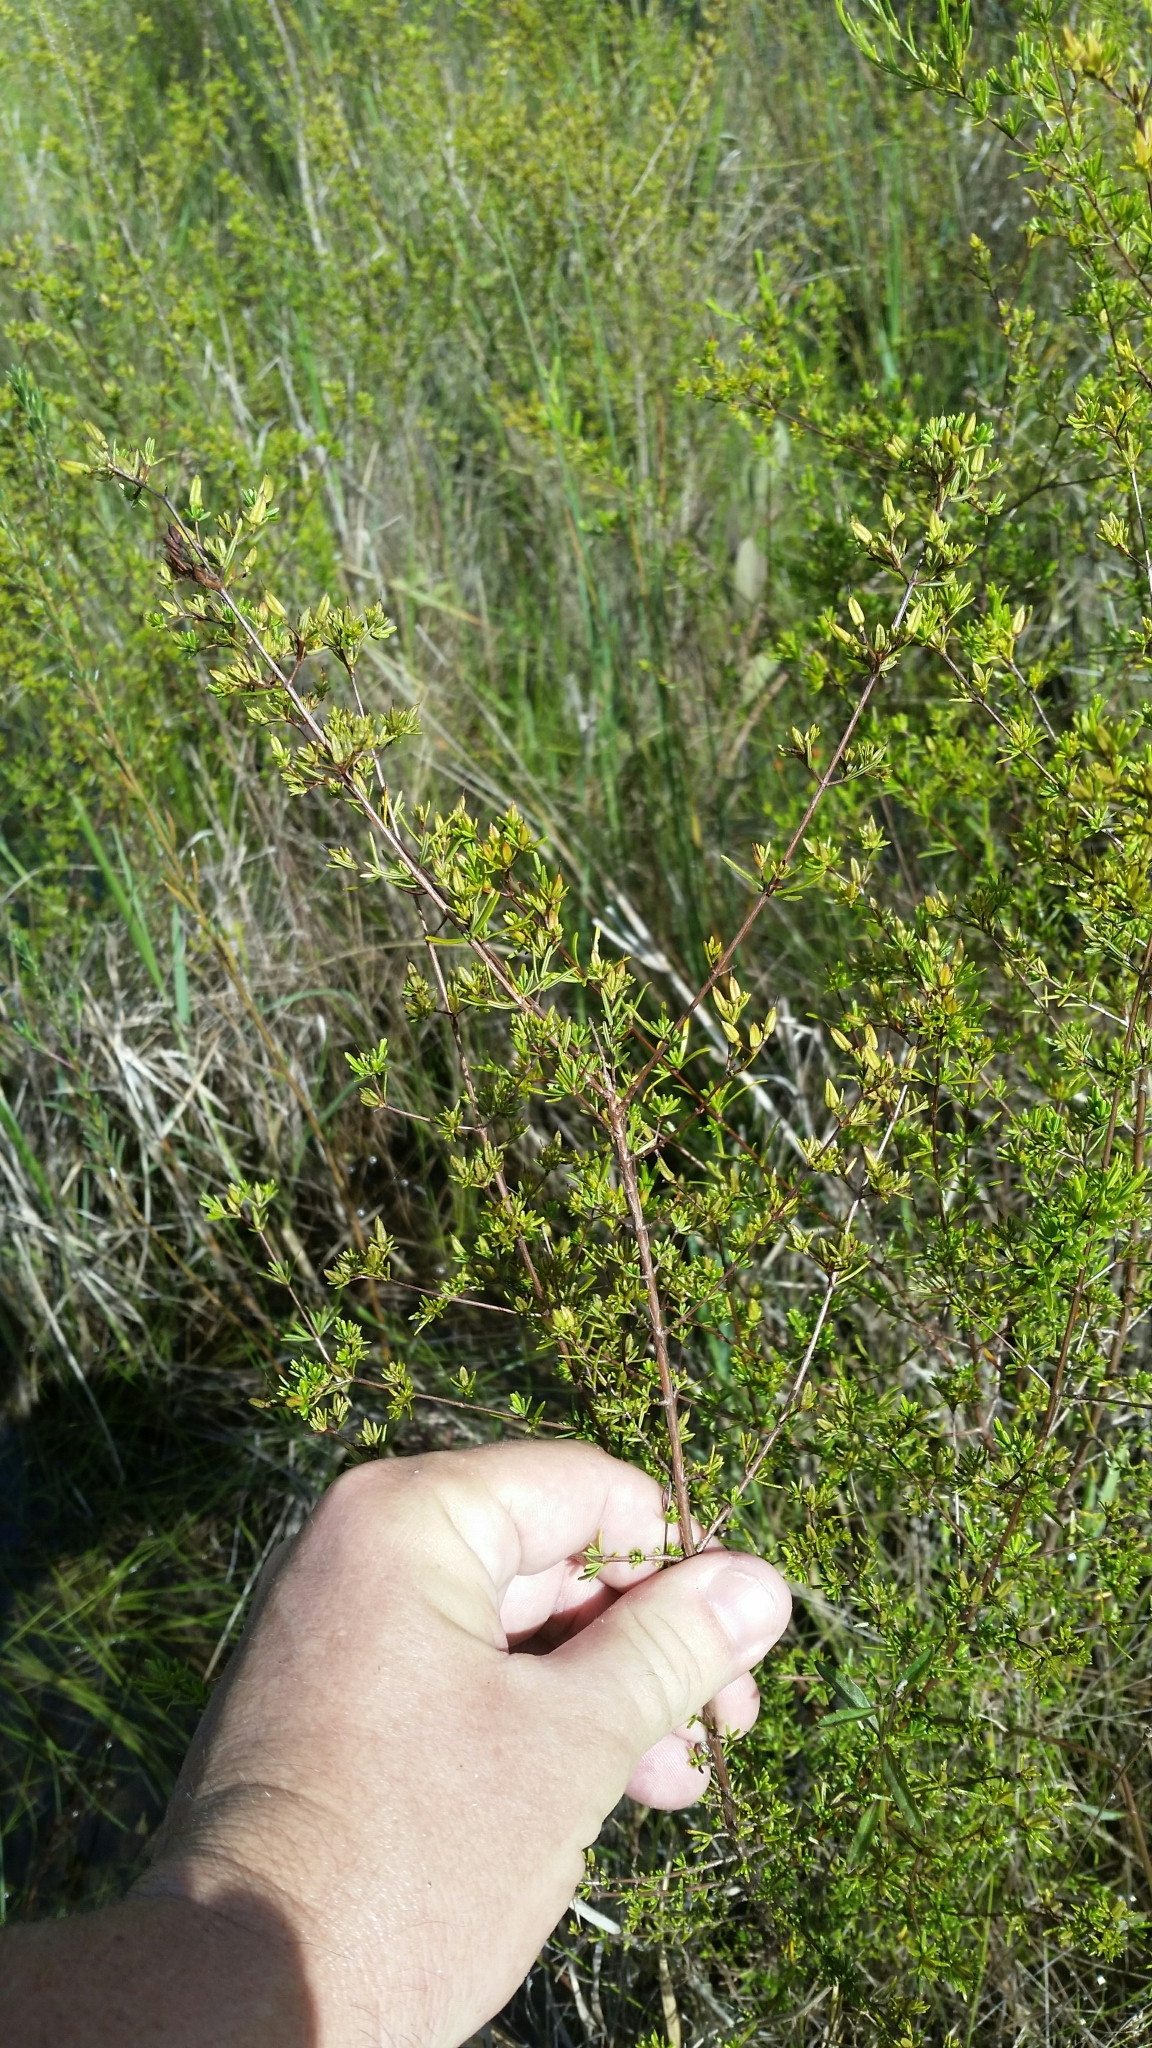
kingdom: Plantae
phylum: Tracheophyta
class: Magnoliopsida
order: Malpighiales
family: Hypericaceae
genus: Hypericum
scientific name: Hypericum limosum
